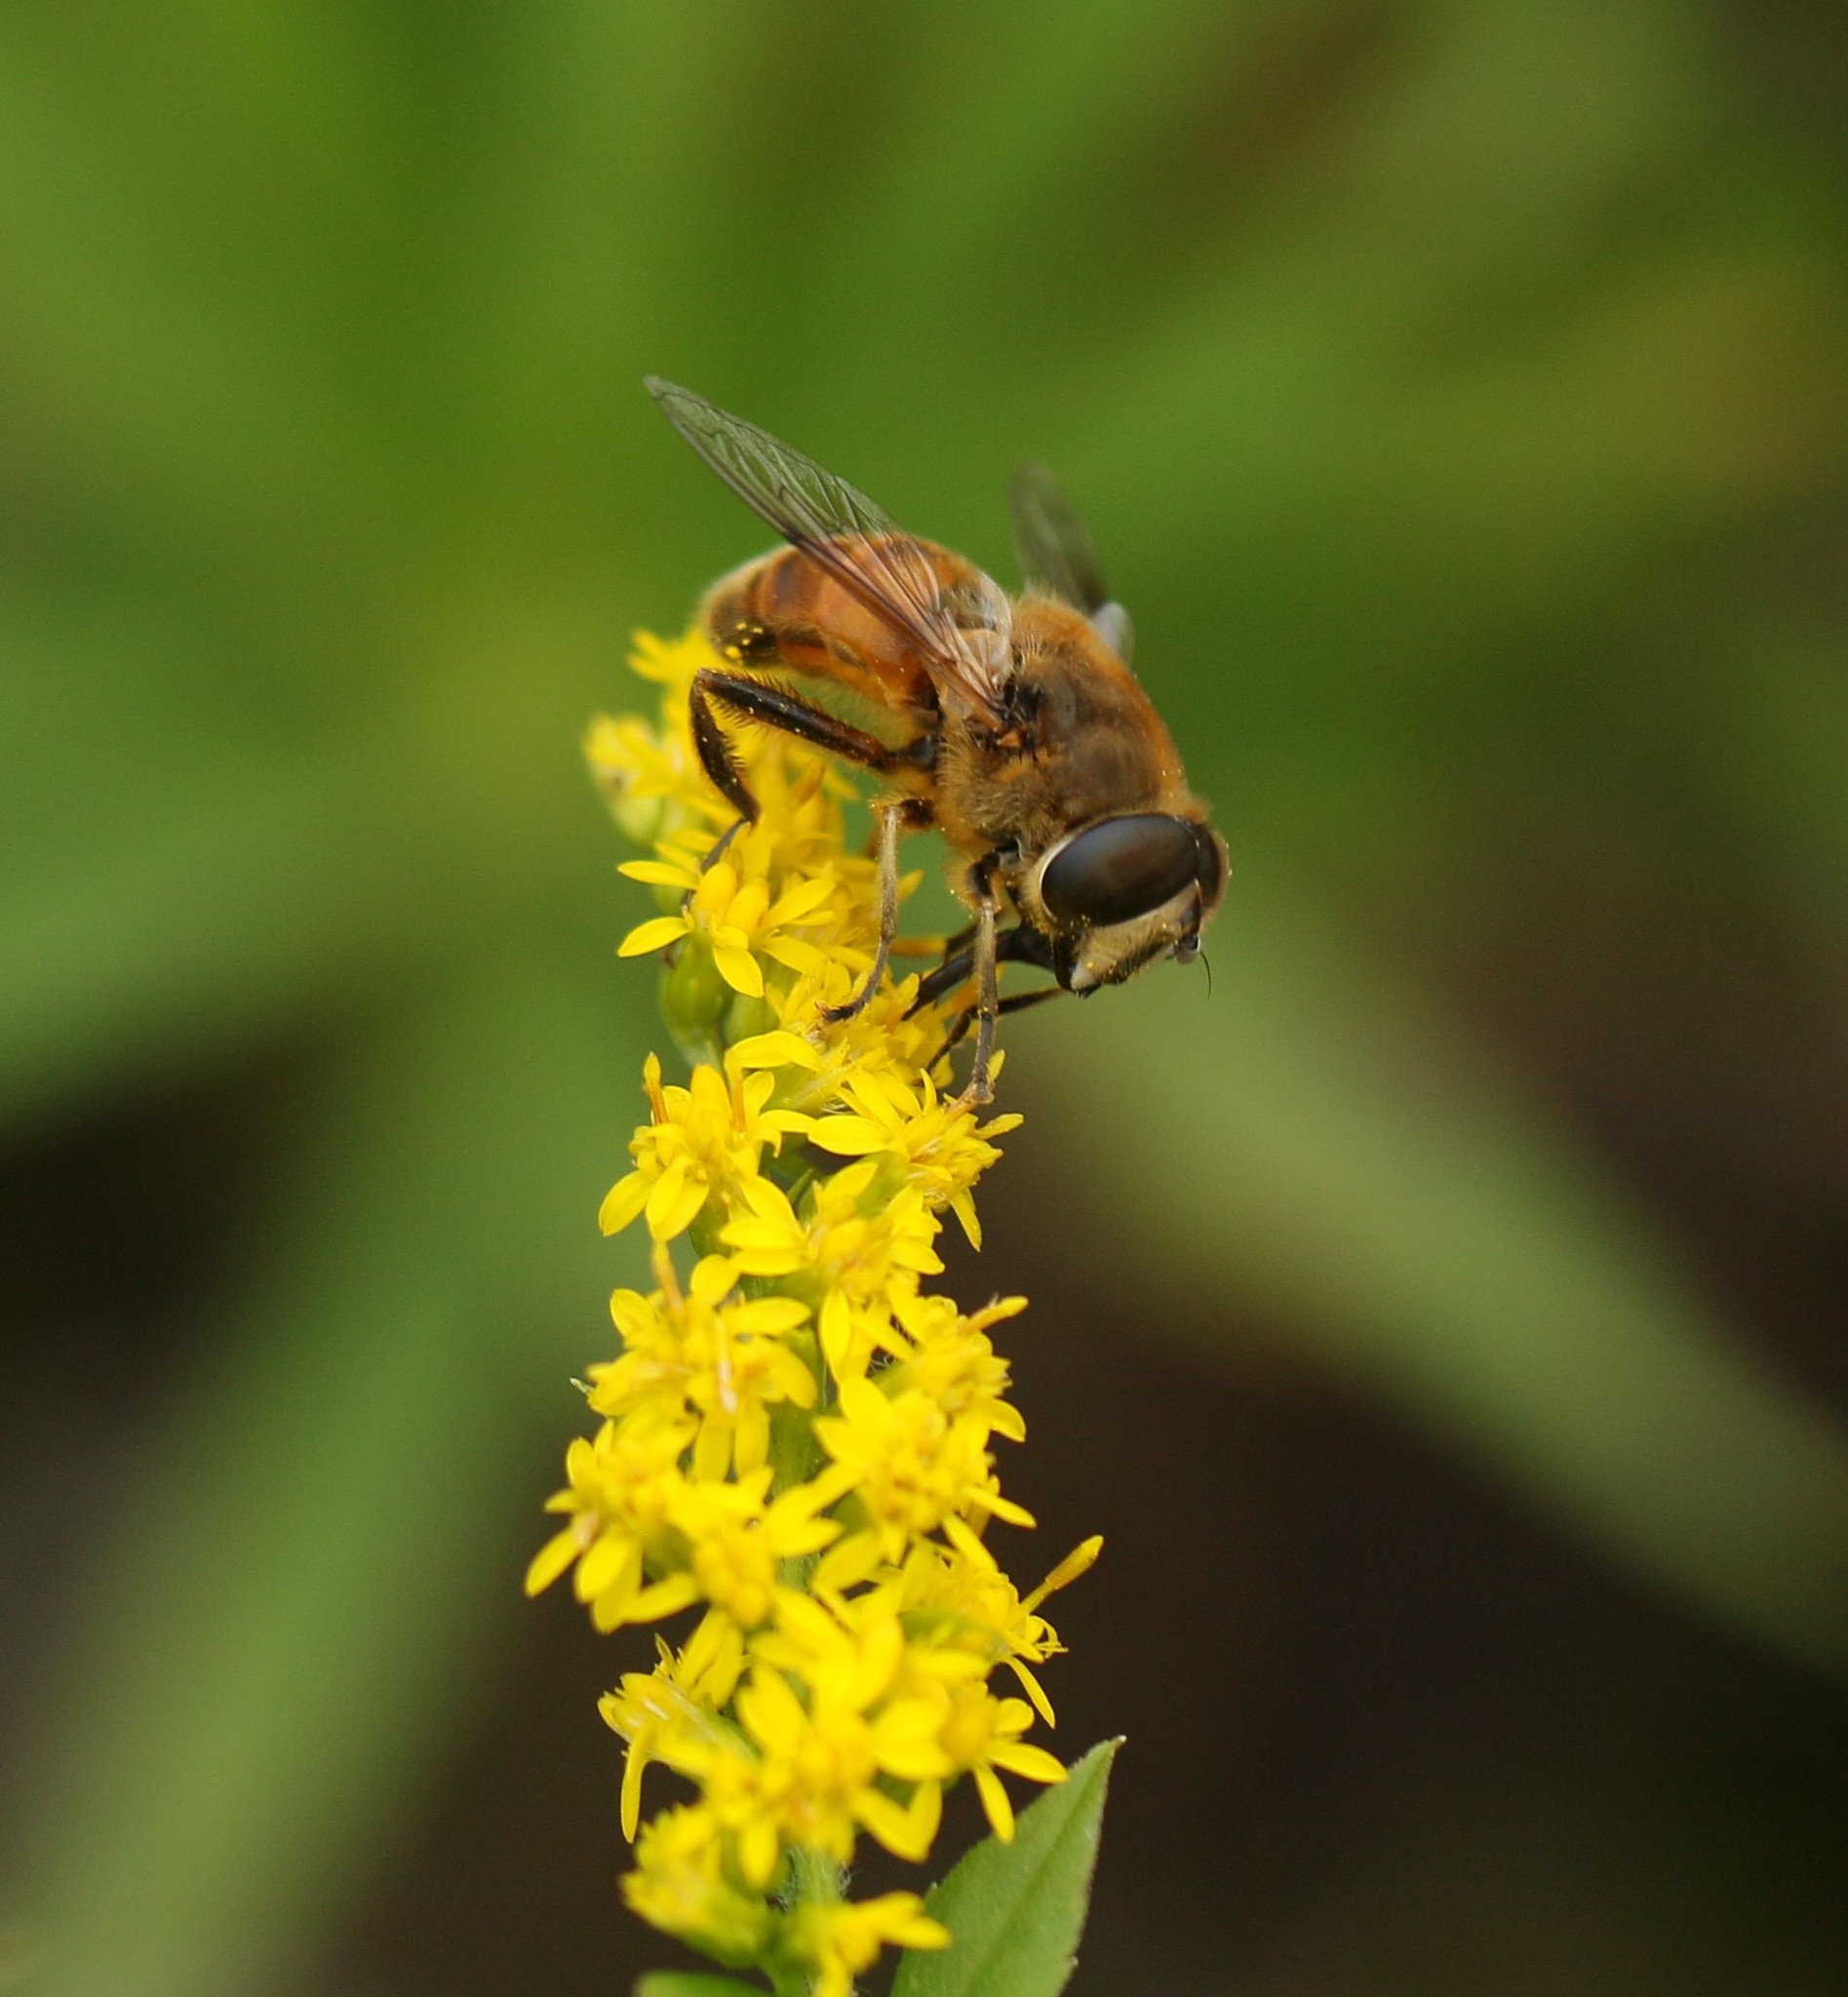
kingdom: Animalia
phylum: Arthropoda
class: Insecta
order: Diptera
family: Syrphidae
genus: Eristalis
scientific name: Eristalis tenax
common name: Drone fly
